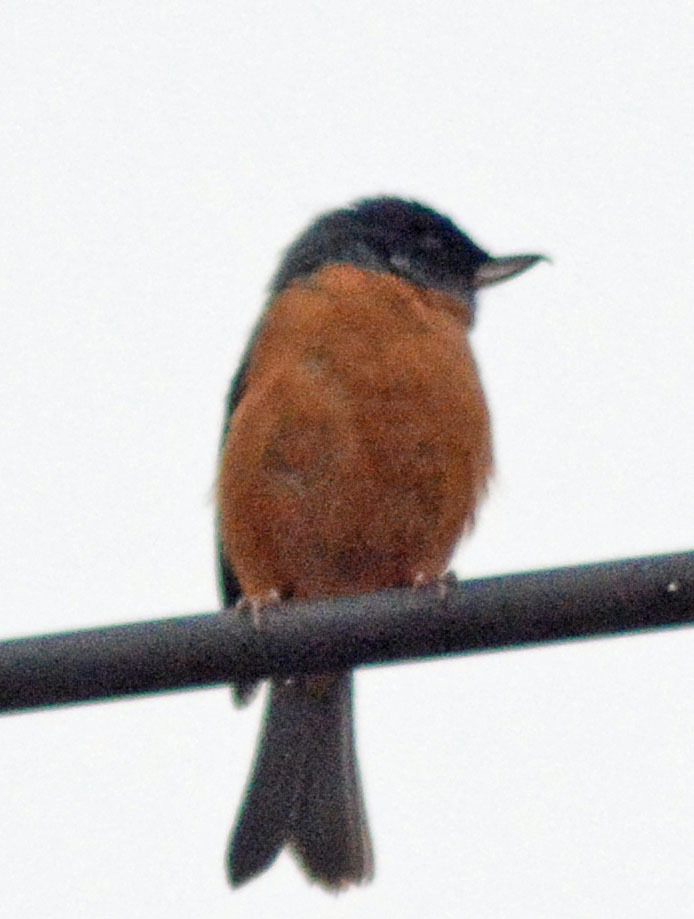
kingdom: Animalia
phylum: Chordata
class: Aves
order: Passeriformes
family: Thraupidae
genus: Diglossa
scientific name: Diglossa baritula
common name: Cinnamon-bellied flowerpiercer
